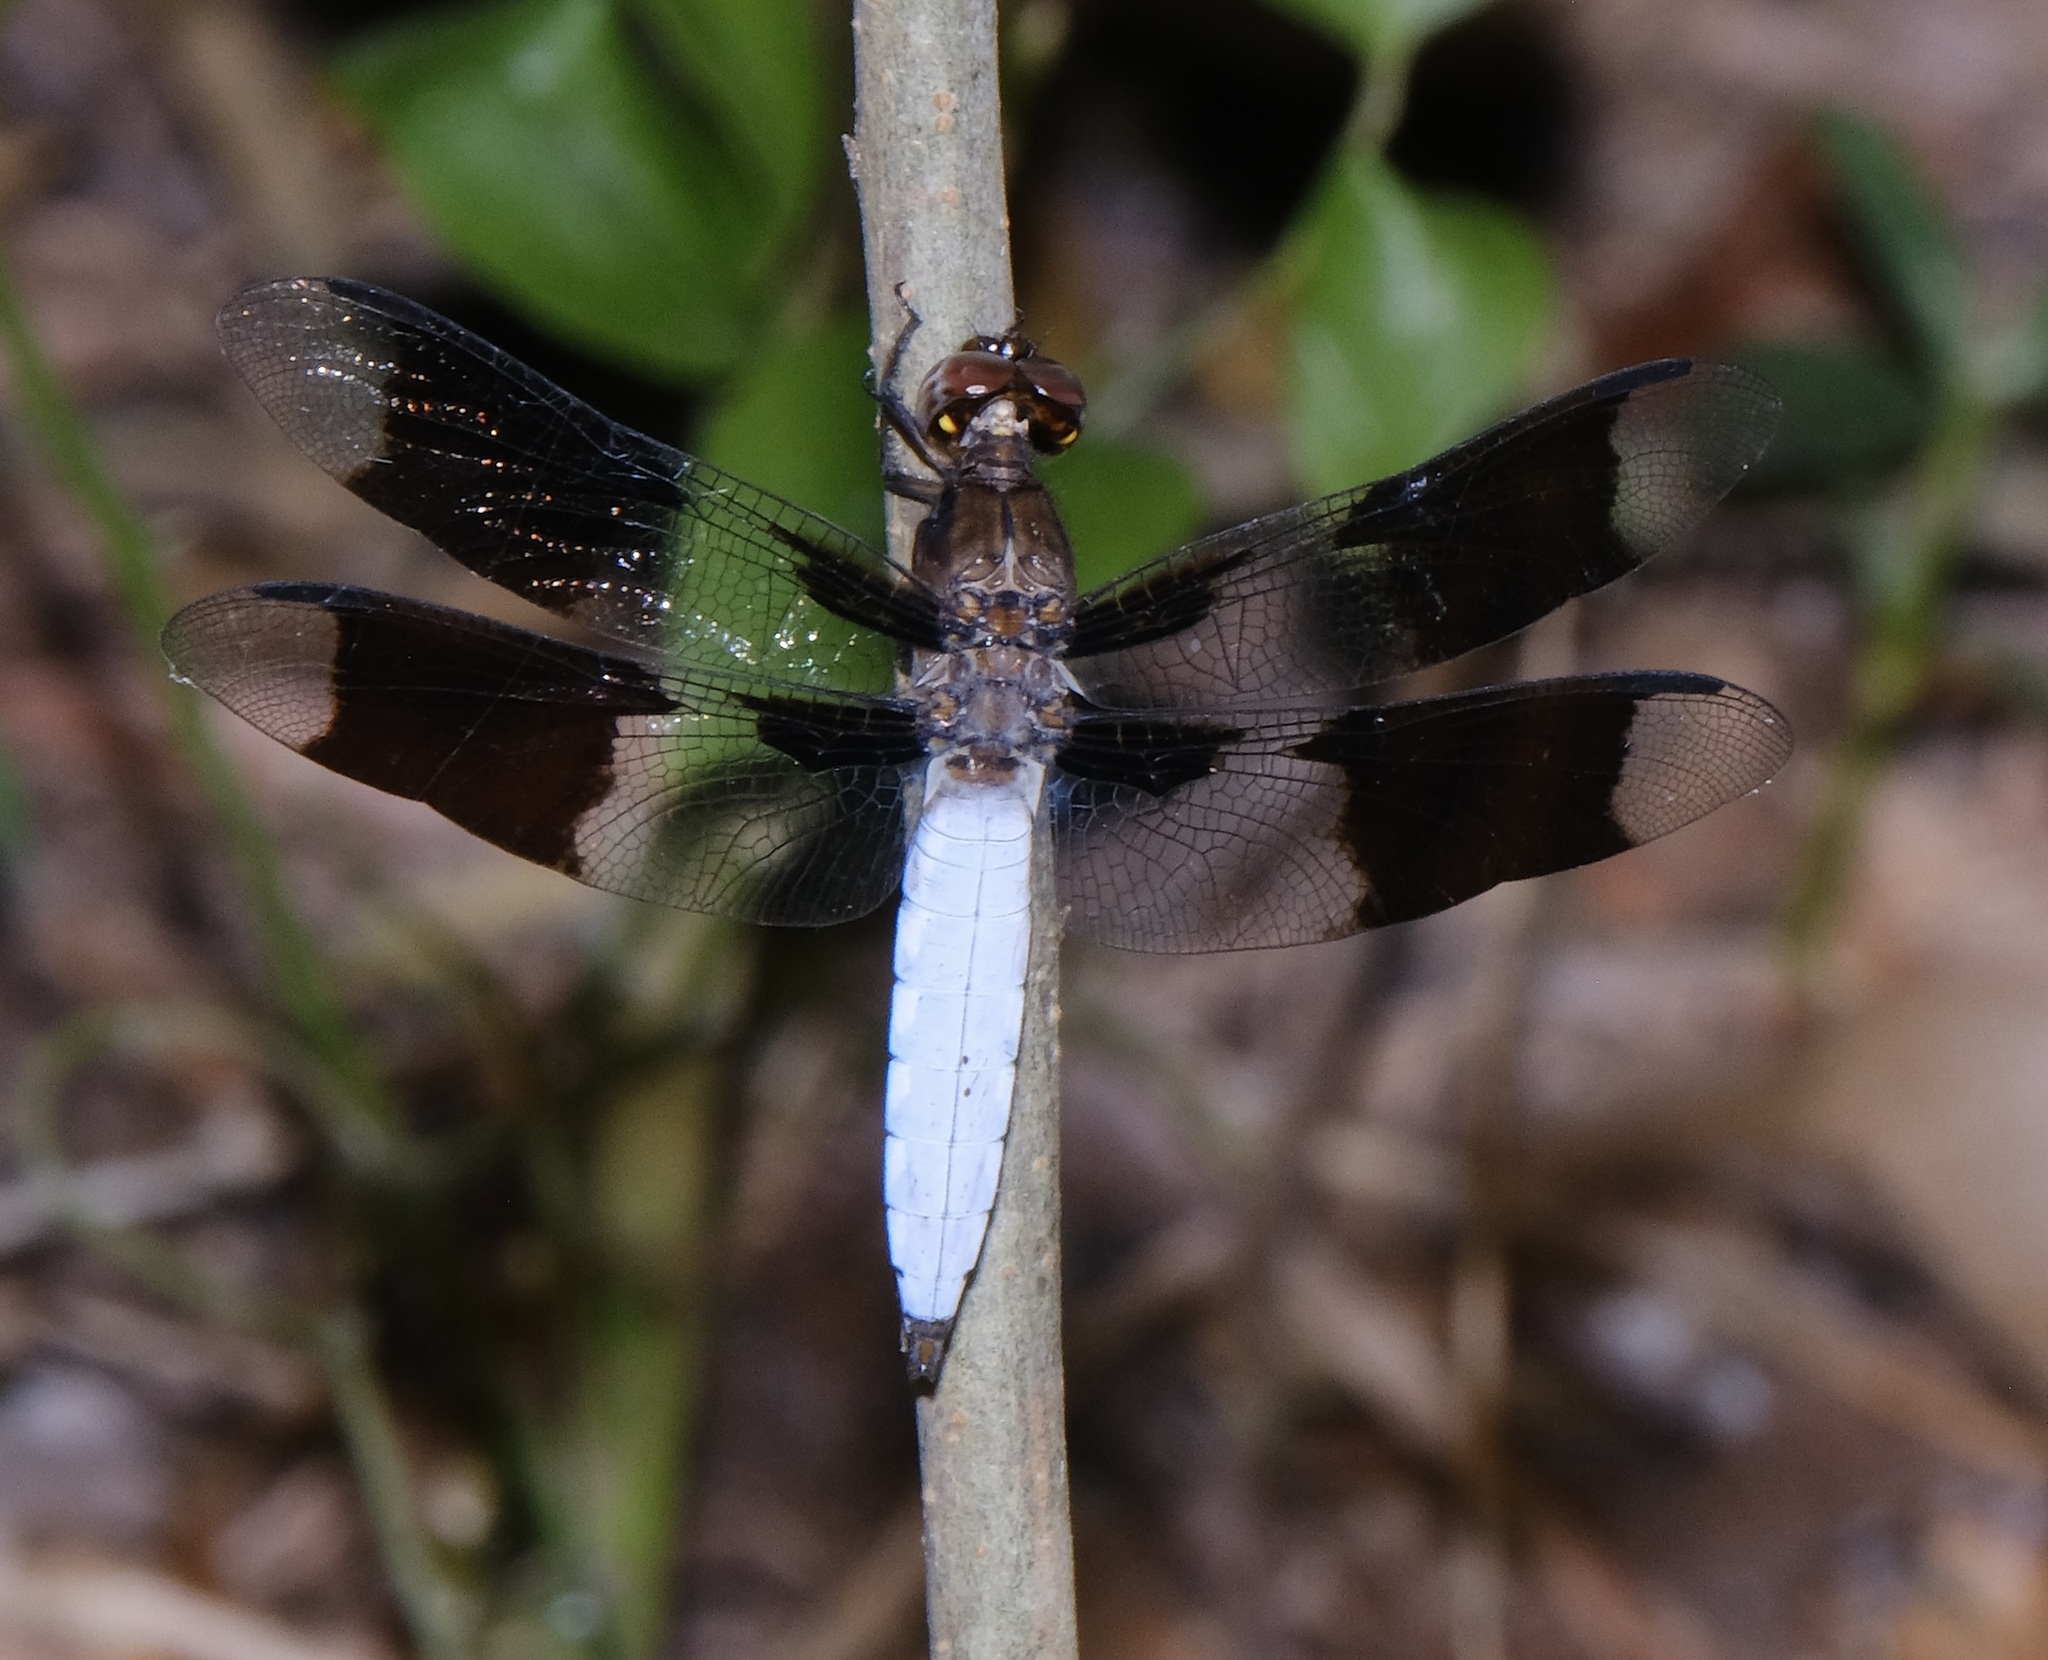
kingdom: Animalia
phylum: Arthropoda
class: Insecta
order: Odonata
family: Libellulidae
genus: Plathemis
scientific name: Plathemis lydia
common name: Common whitetail
